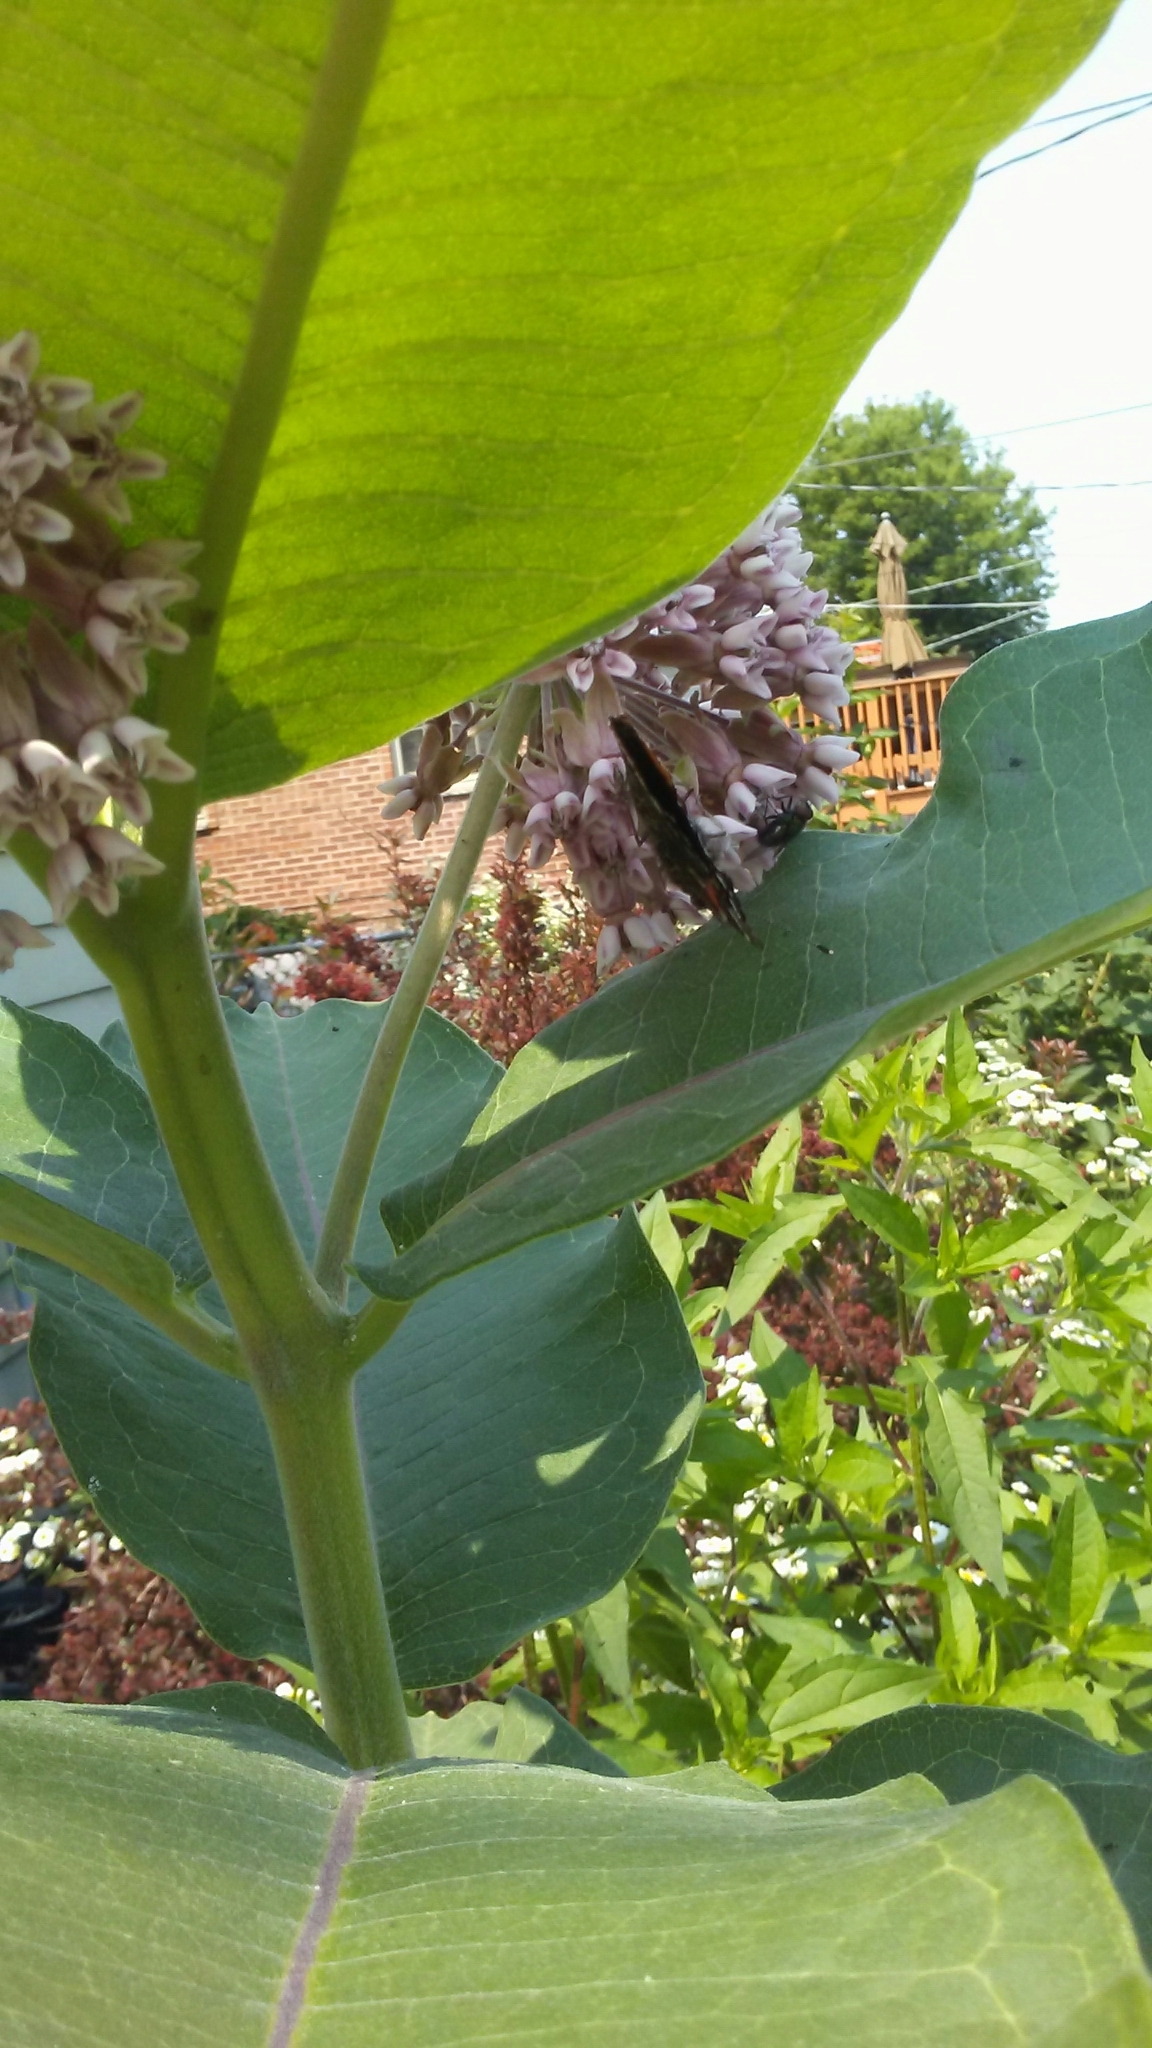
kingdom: Animalia
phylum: Arthropoda
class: Insecta
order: Lepidoptera
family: Nymphalidae
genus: Vanessa
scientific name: Vanessa atalanta
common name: Red admiral
